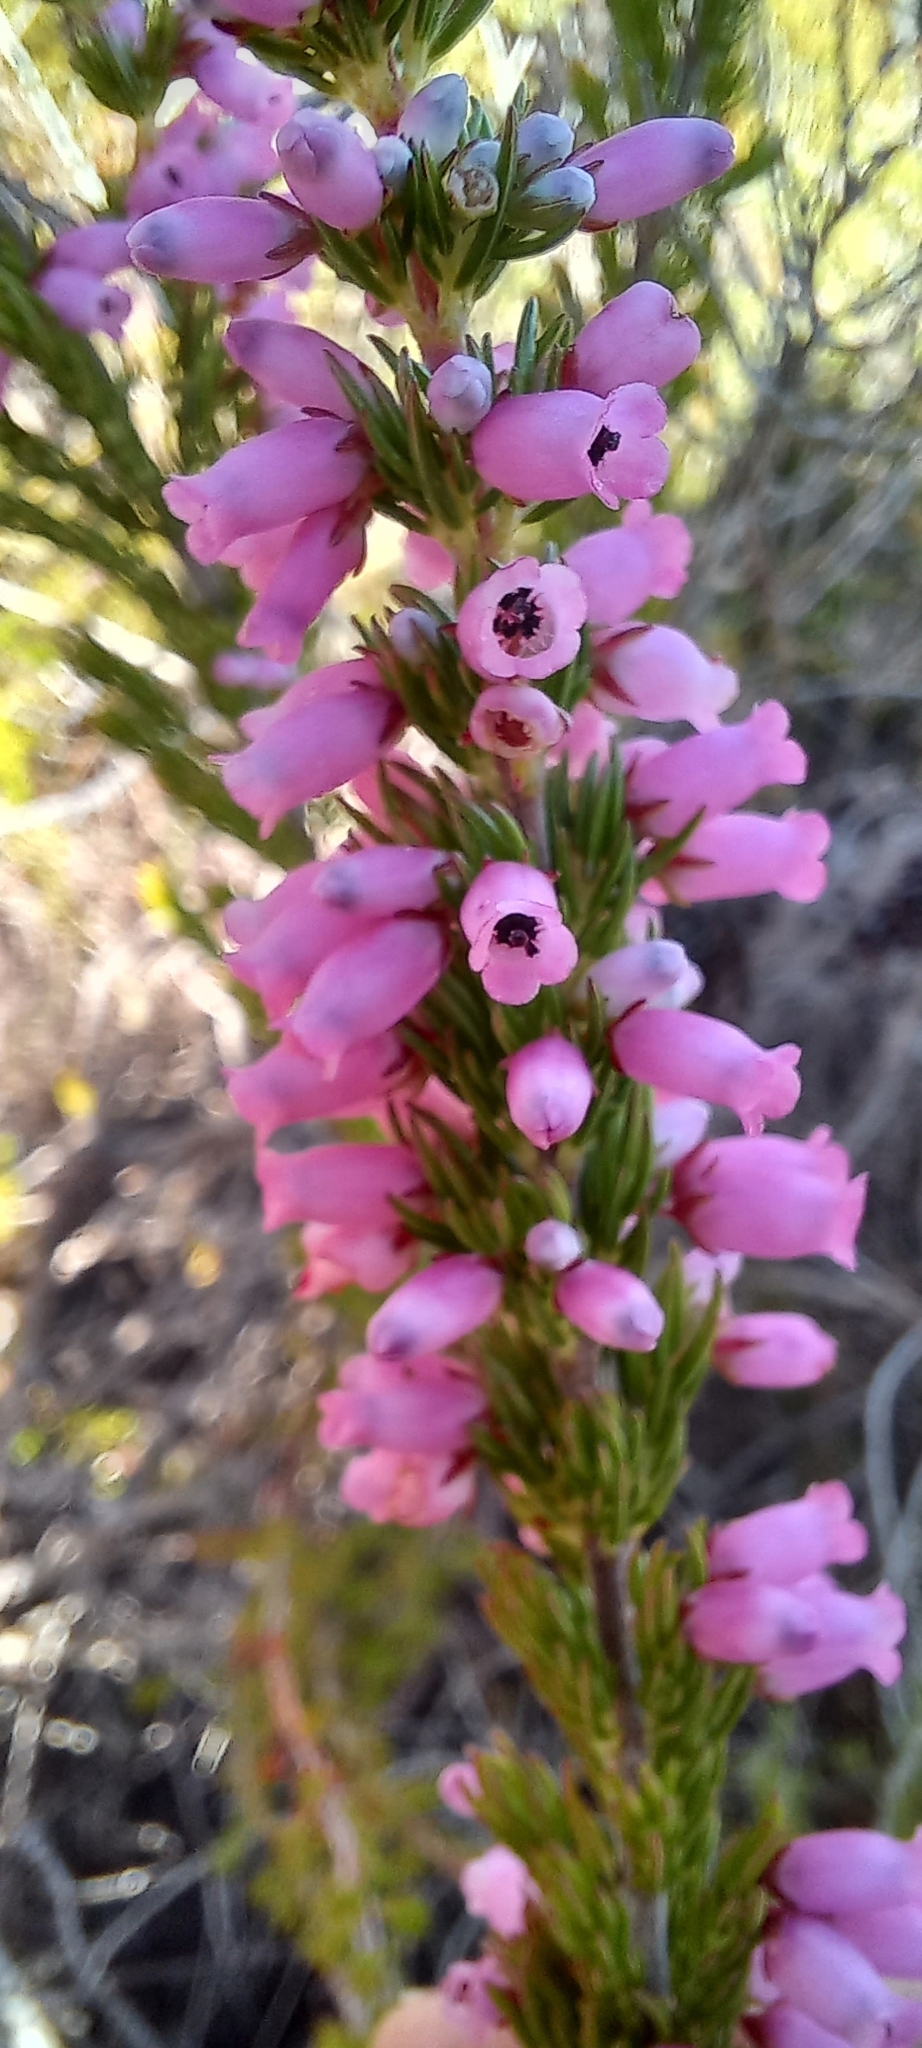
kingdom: Plantae
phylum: Tracheophyta
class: Magnoliopsida
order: Ericales
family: Ericaceae
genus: Erica
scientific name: Erica sitiens
